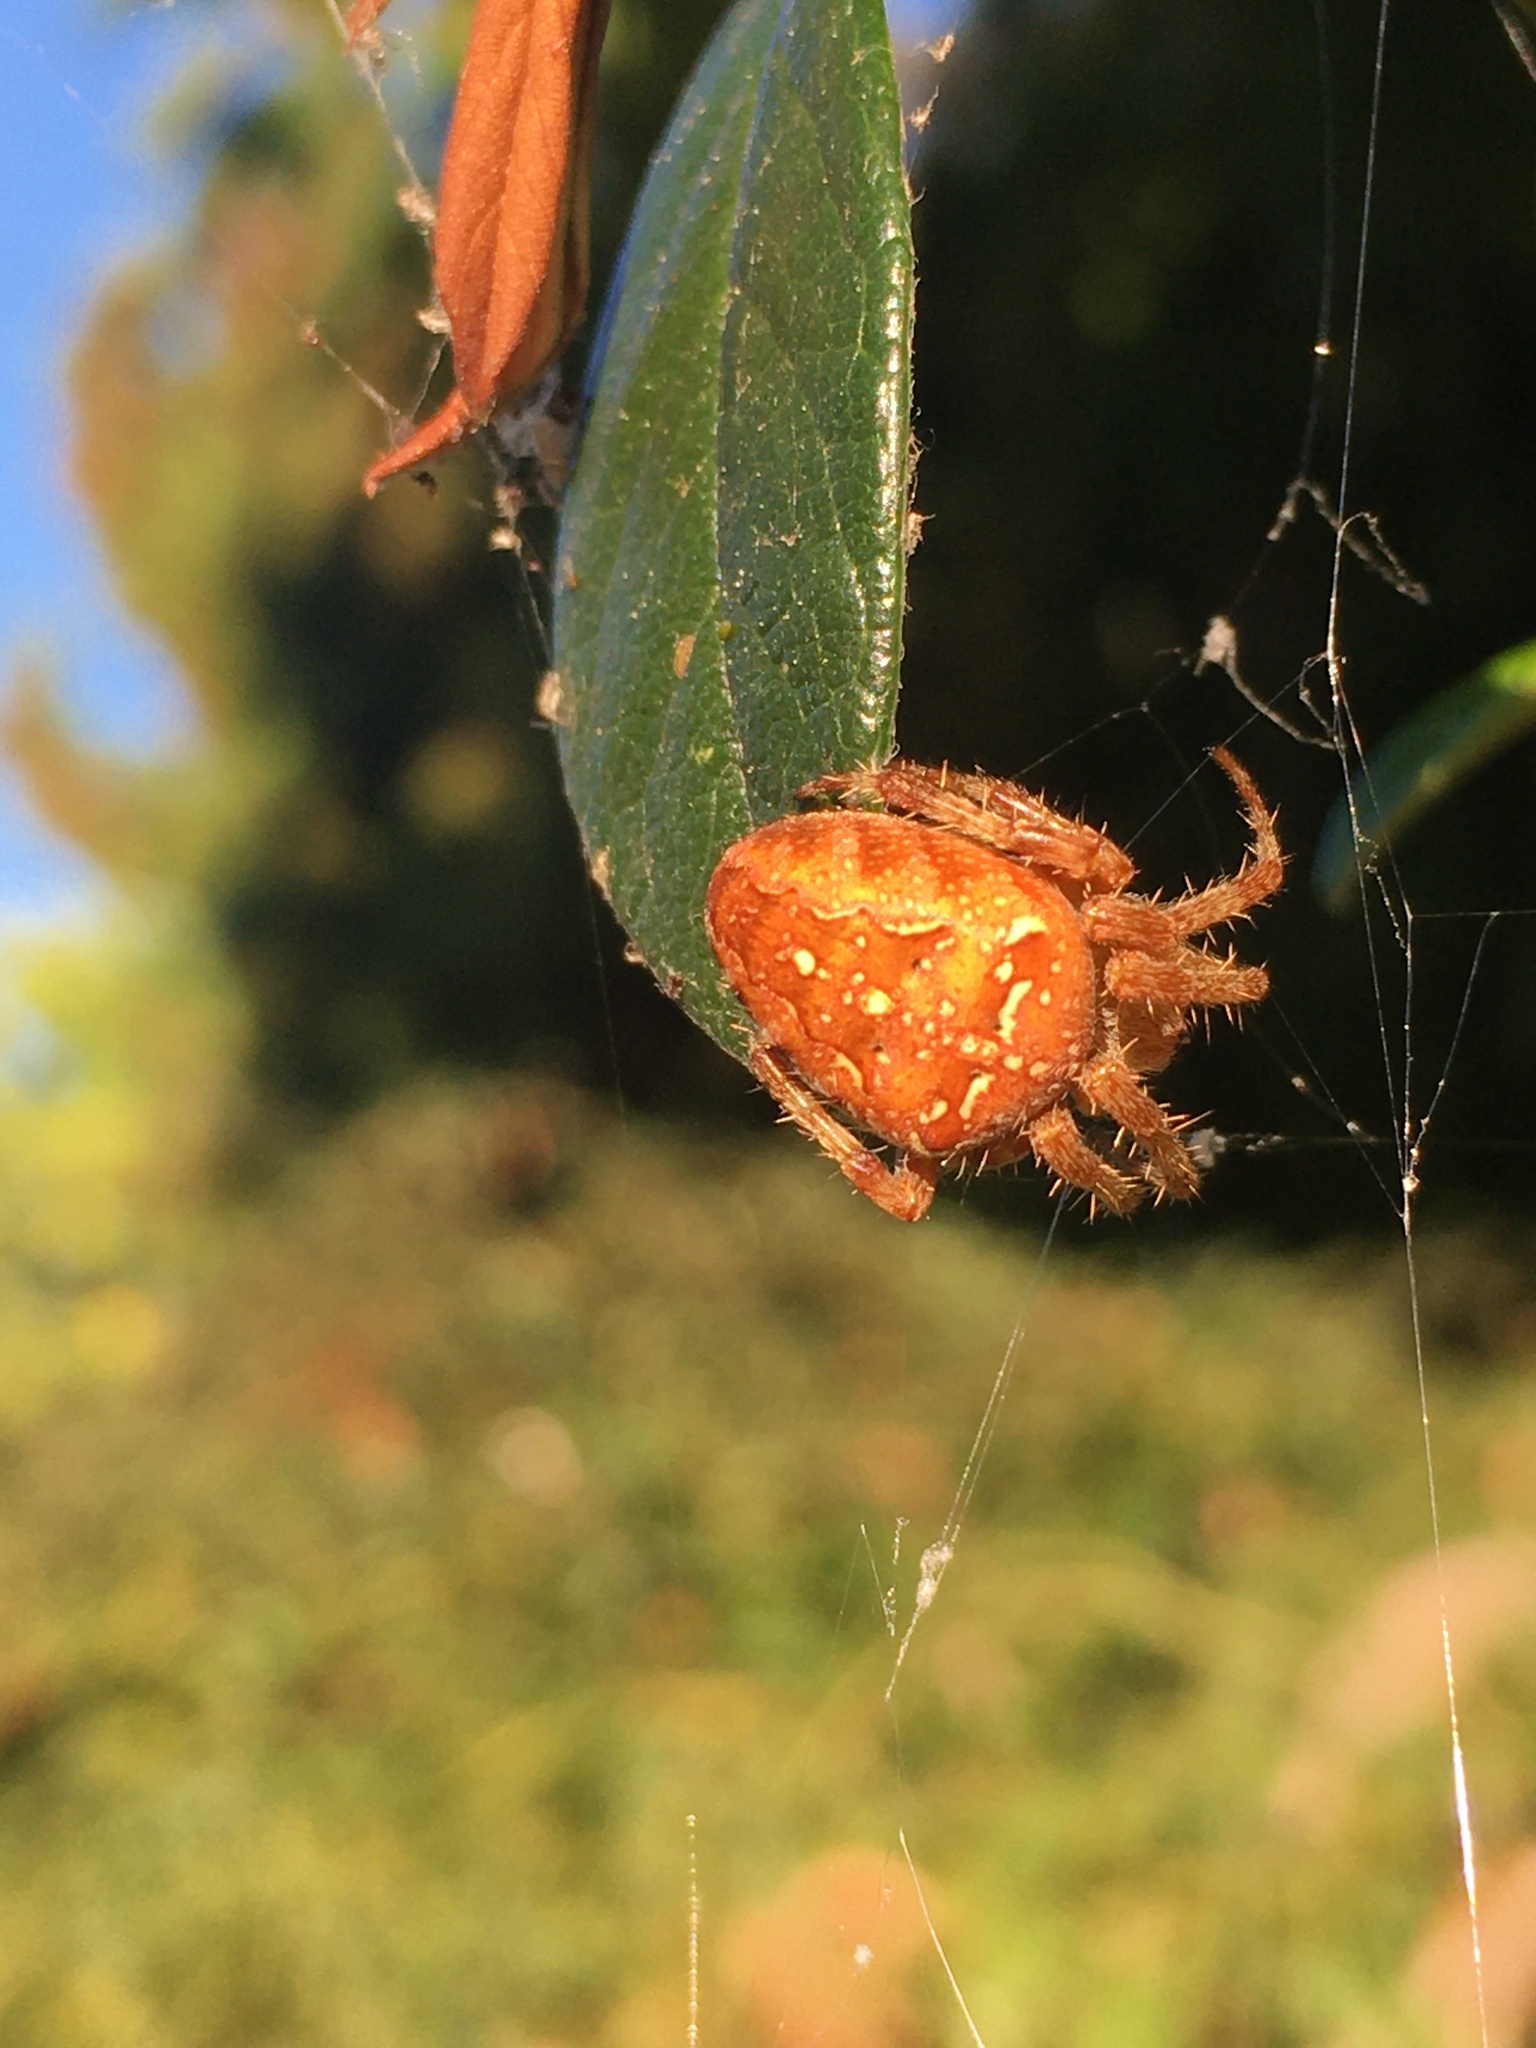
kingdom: Animalia
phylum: Arthropoda
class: Arachnida
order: Araneae
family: Araneidae
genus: Araneus
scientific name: Araneus diadematus
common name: Cross orbweaver
